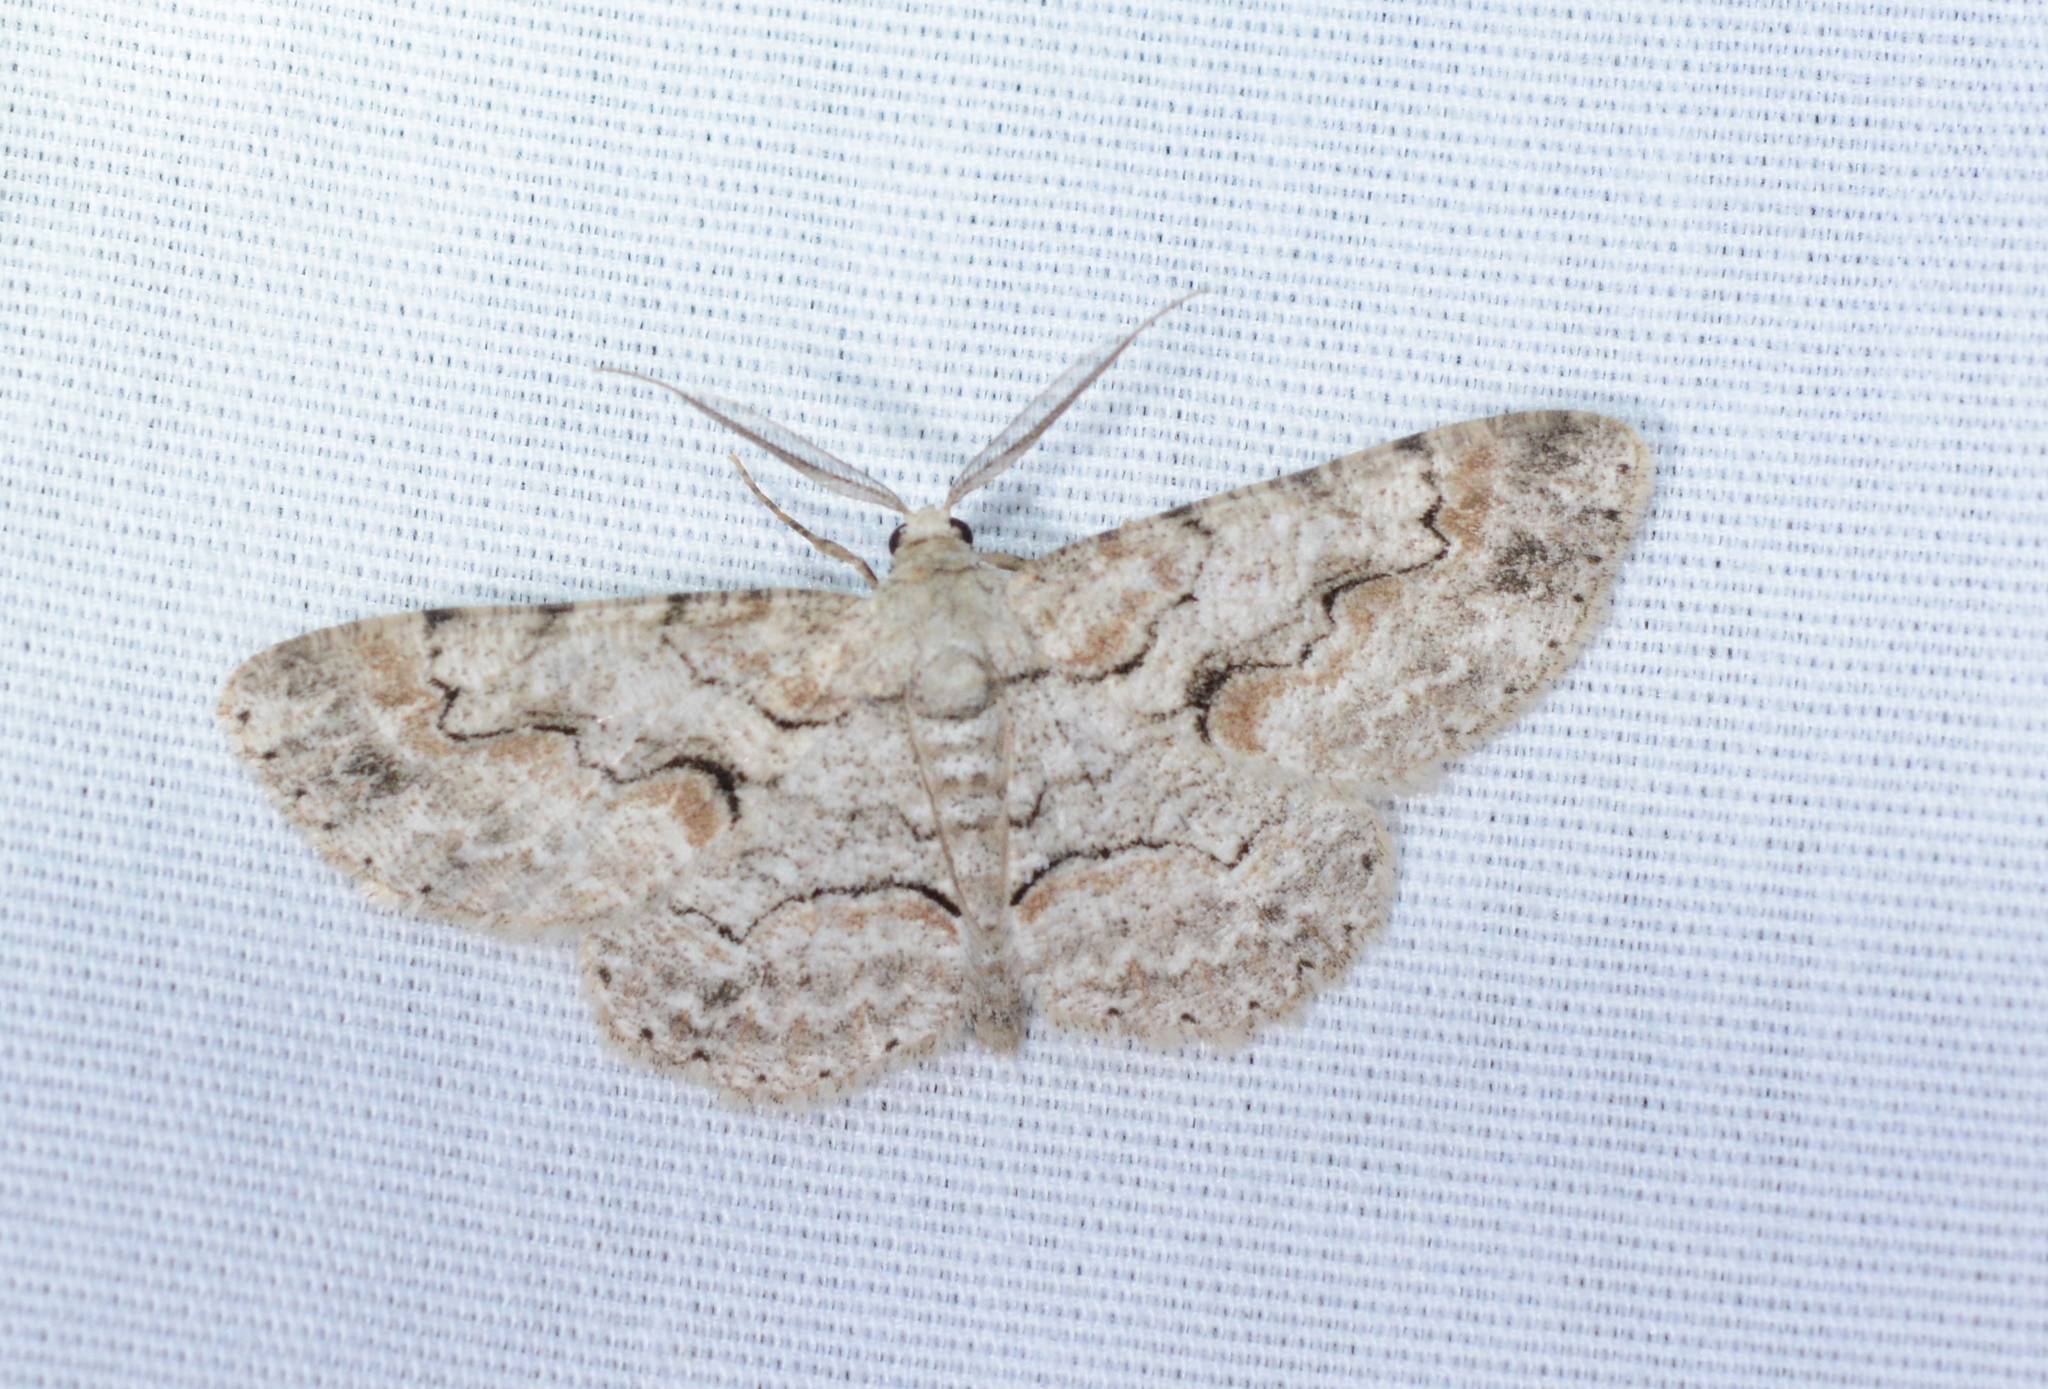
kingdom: Animalia
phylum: Arthropoda
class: Insecta
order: Lepidoptera
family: Geometridae
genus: Iridopsis
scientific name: Iridopsis defectaria
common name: Brown-shaded gray
